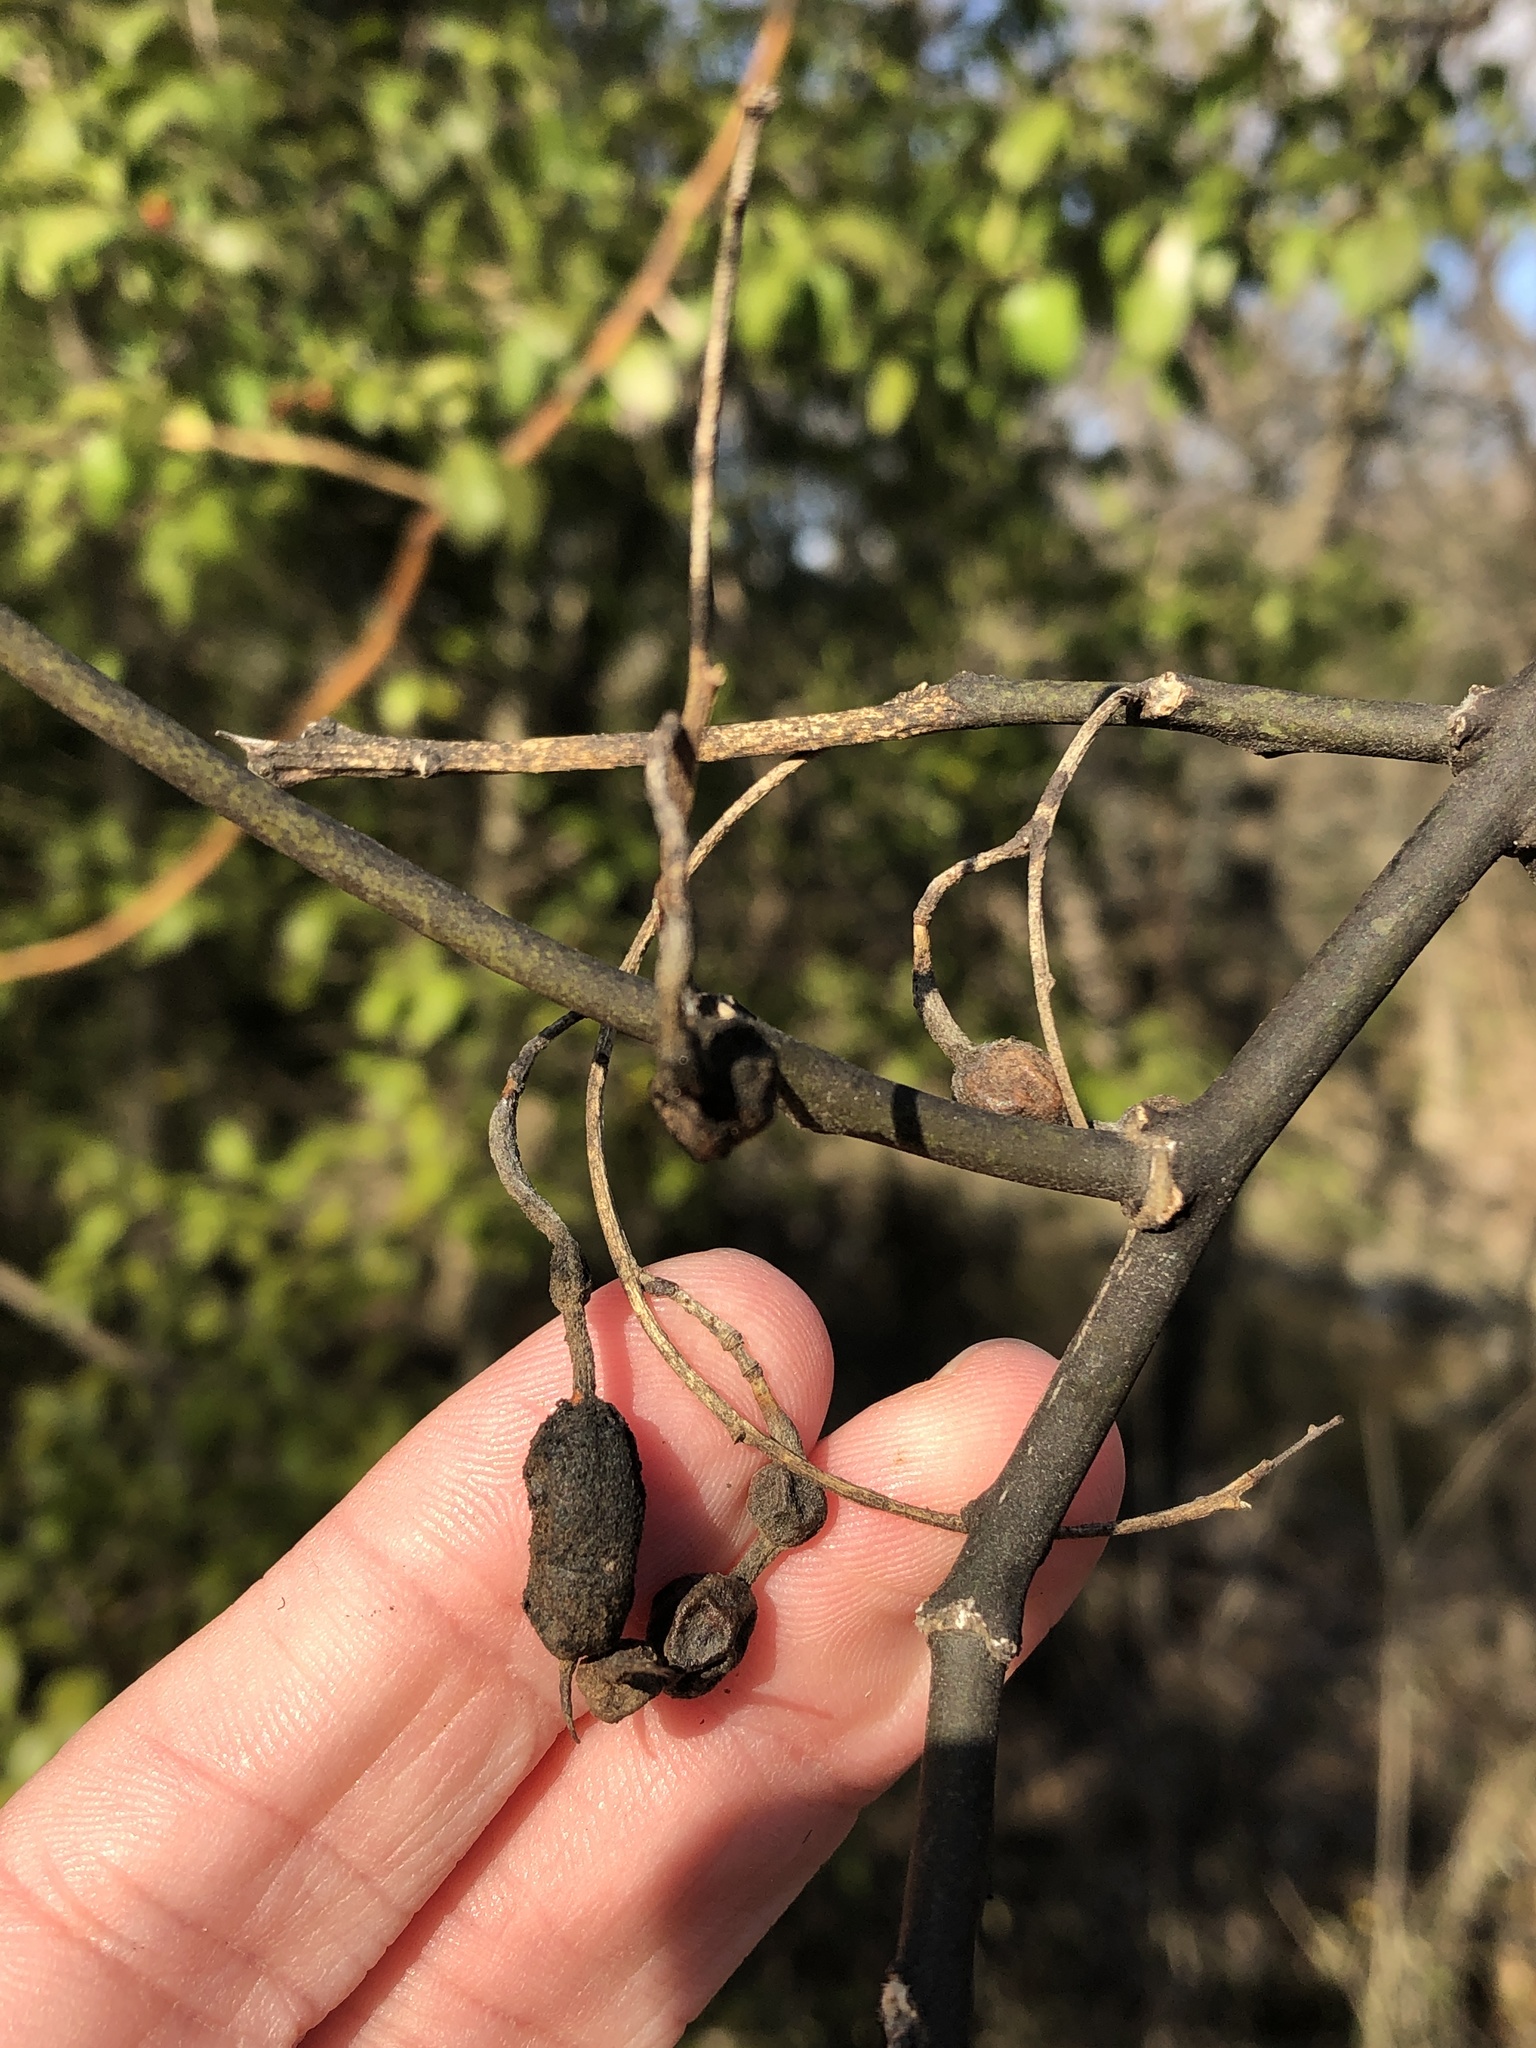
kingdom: Plantae
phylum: Tracheophyta
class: Magnoliopsida
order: Fabales
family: Fabaceae
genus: Styphnolobium
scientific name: Styphnolobium affine
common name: Texas sophora
